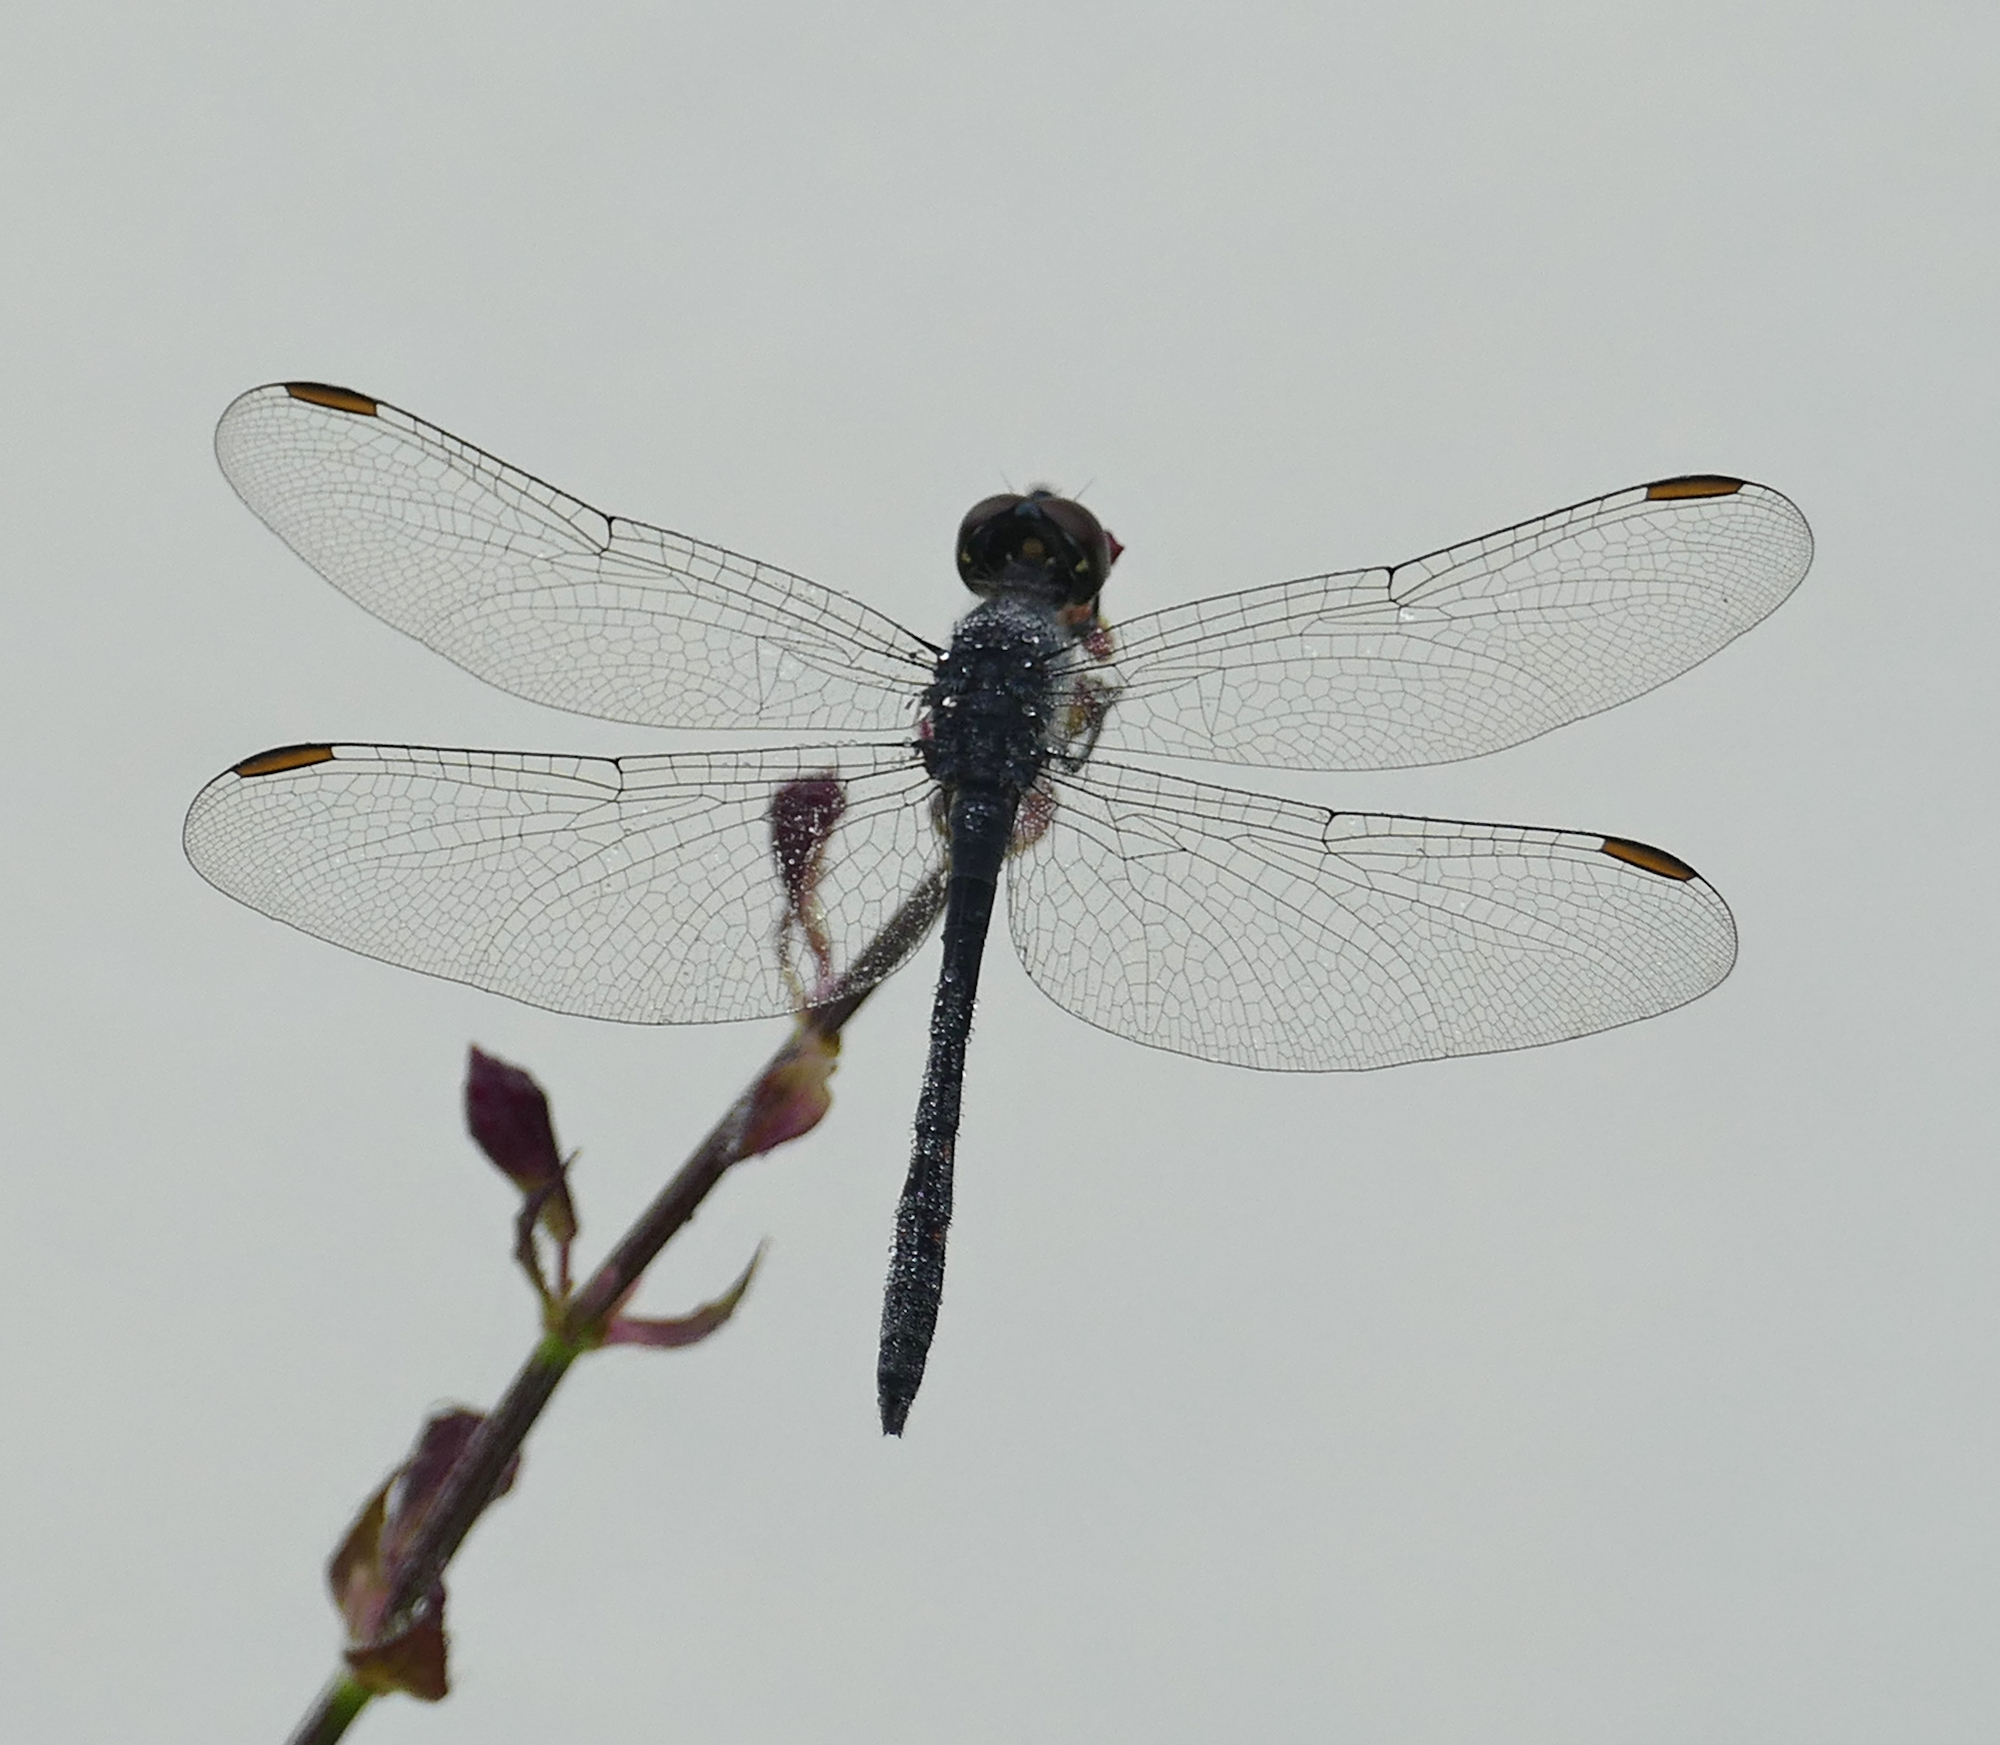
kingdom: Animalia
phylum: Arthropoda
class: Insecta
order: Odonata
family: Libellulidae
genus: Erythrodiplax
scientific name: Erythrodiplax berenice
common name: Seaside dragonlet
